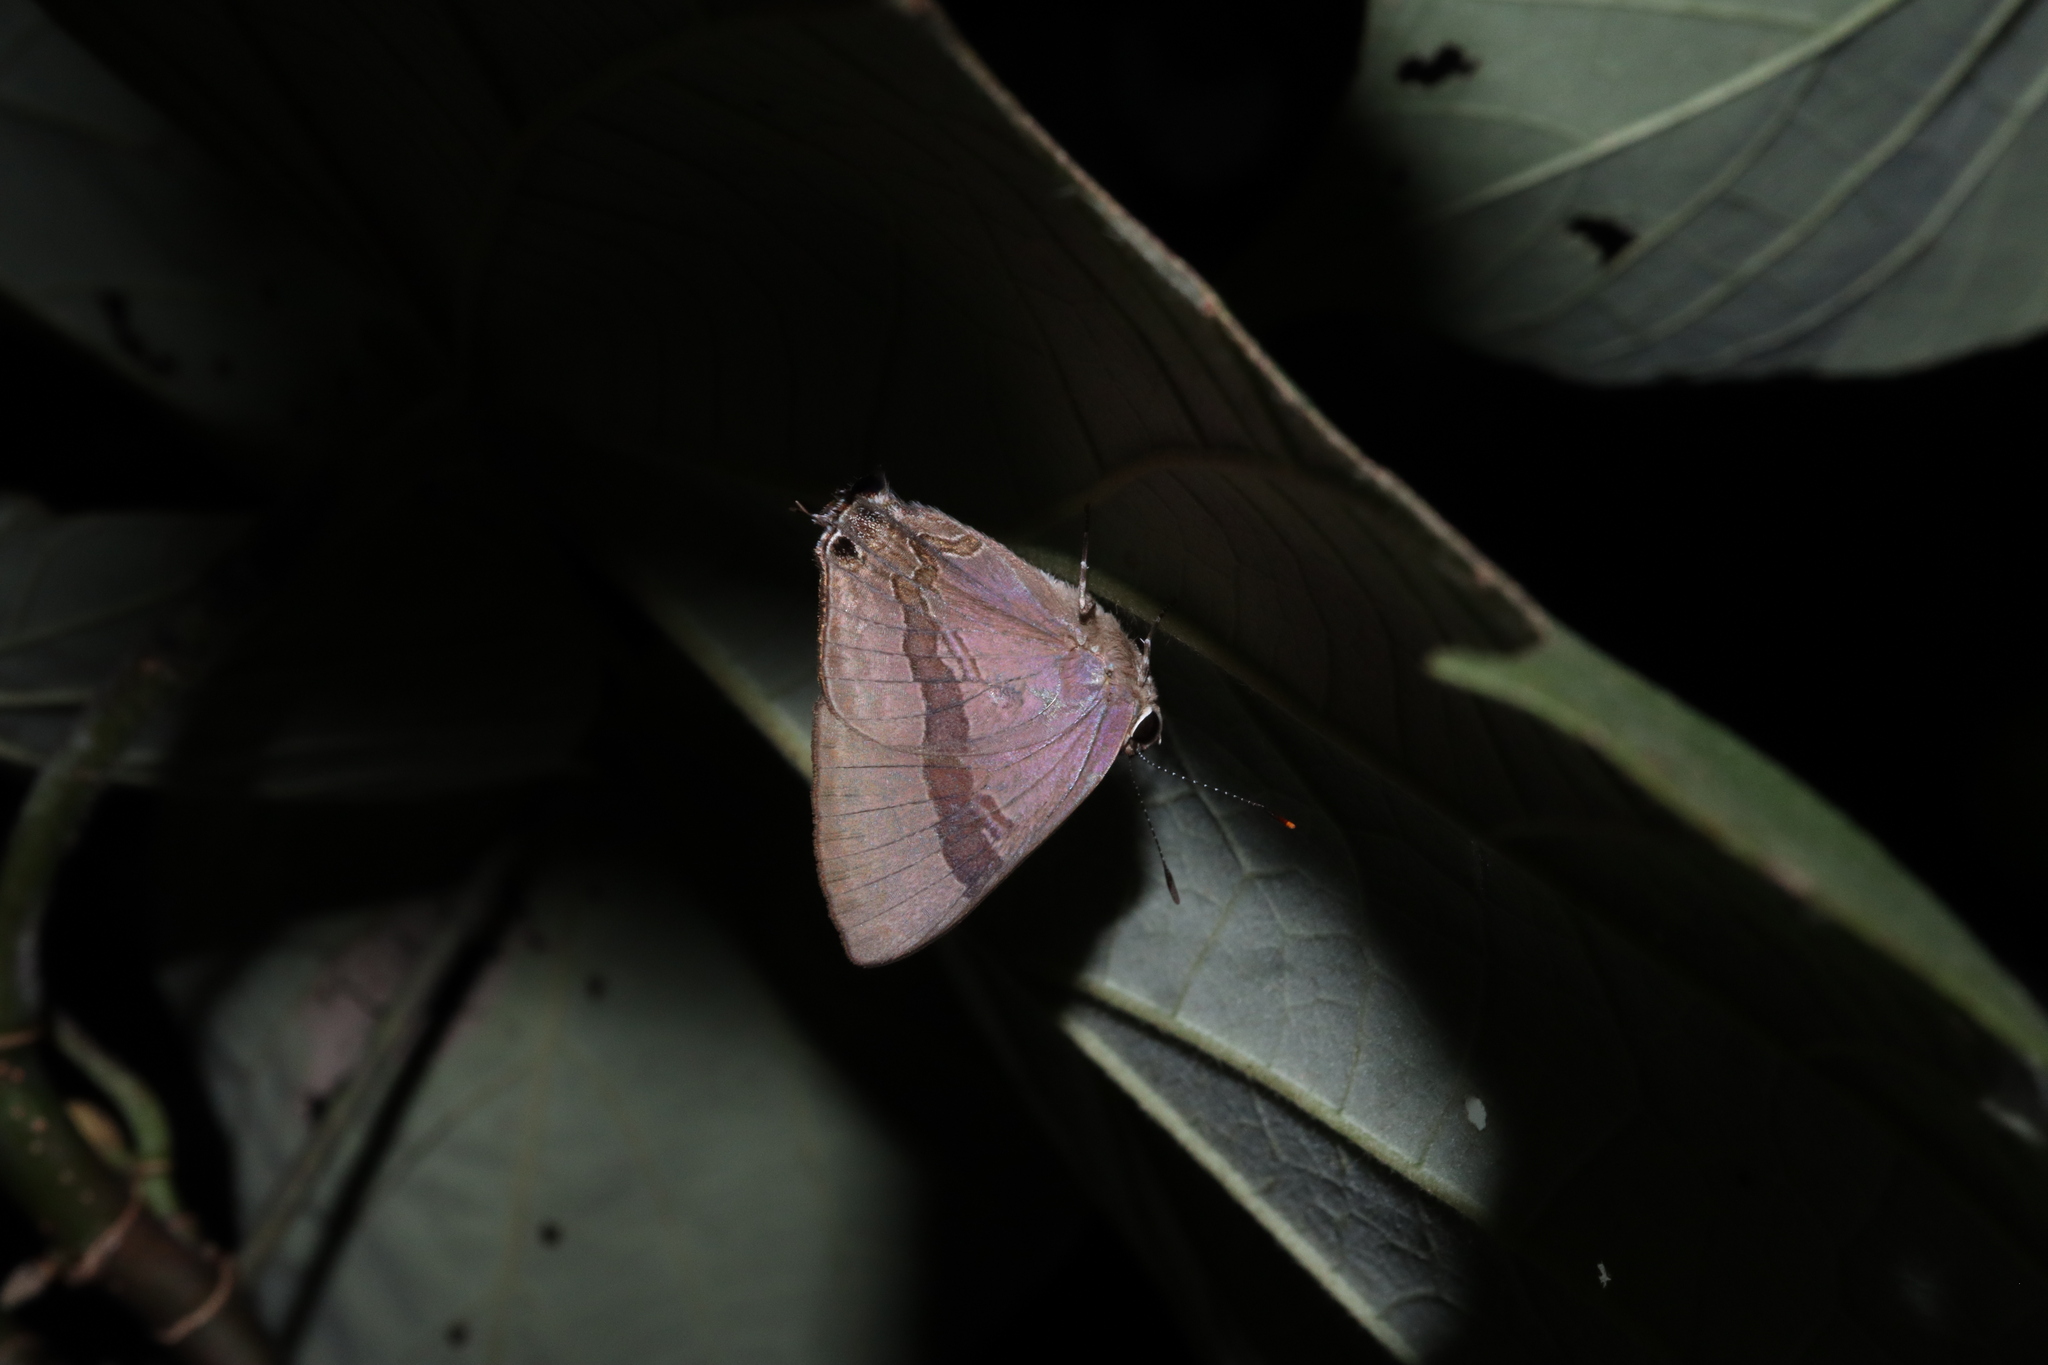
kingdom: Animalia
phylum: Arthropoda
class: Insecta
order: Lepidoptera
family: Lycaenidae
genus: Rapala
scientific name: Rapala varuna
